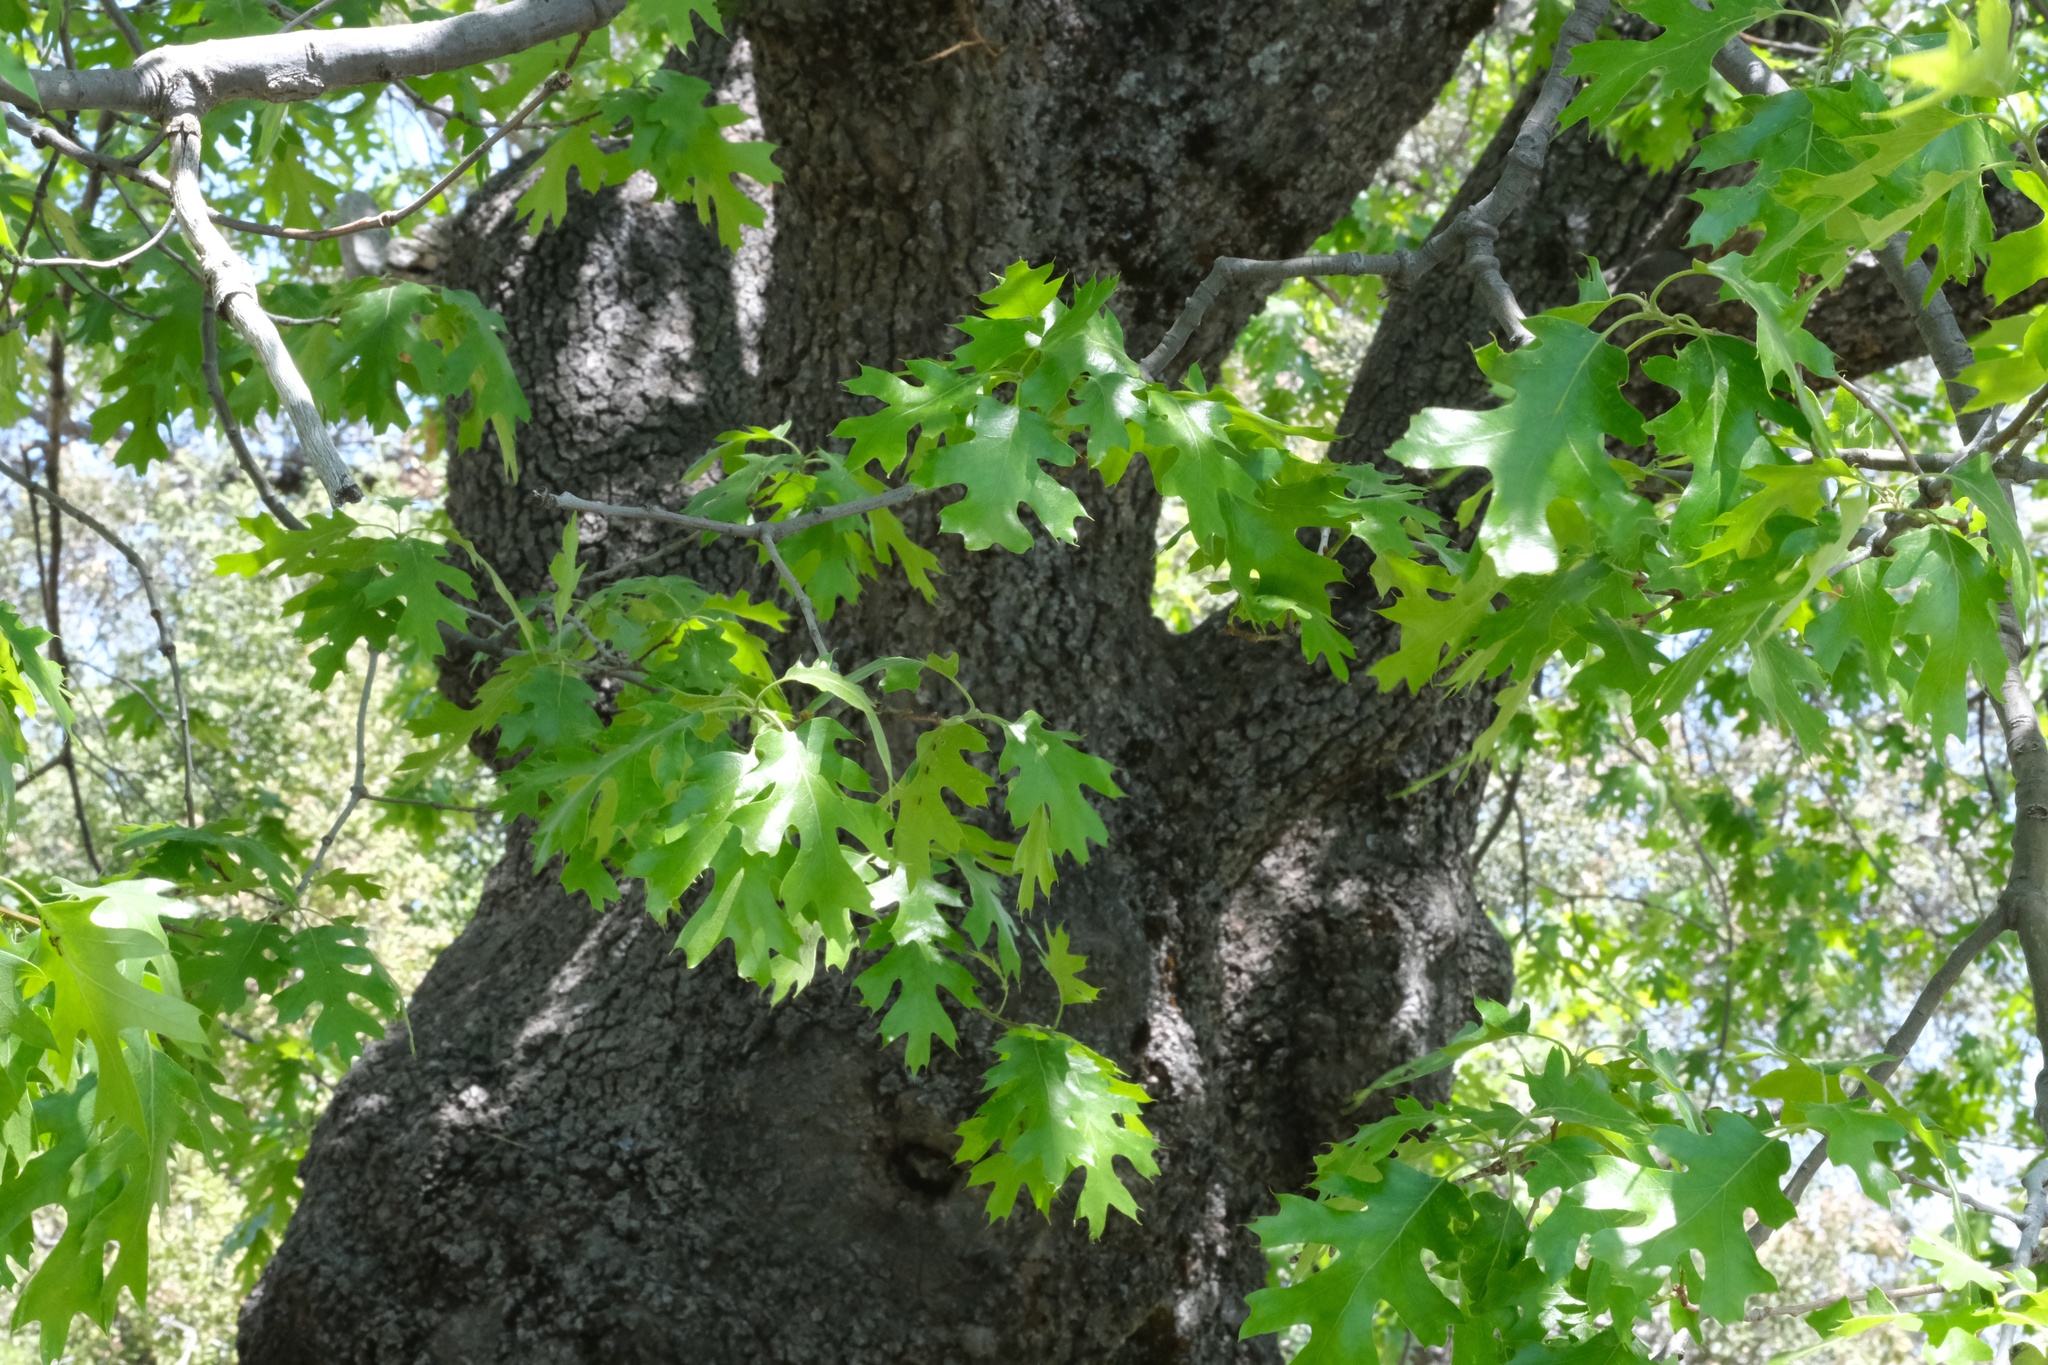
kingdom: Plantae
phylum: Tracheophyta
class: Magnoliopsida
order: Fagales
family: Fagaceae
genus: Quercus
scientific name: Quercus kelloggii
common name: California black oak
